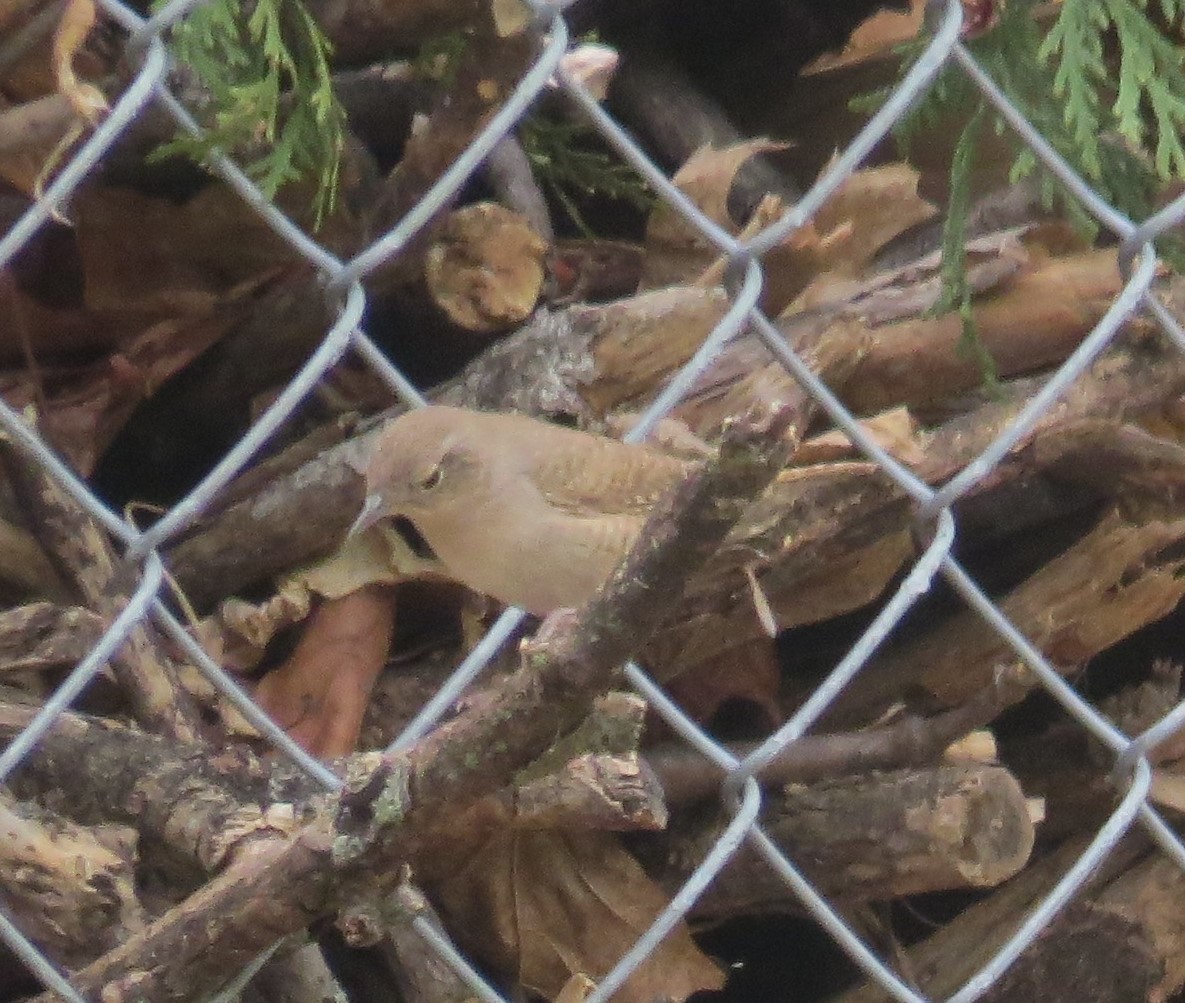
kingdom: Animalia
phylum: Chordata
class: Aves
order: Passeriformes
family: Troglodytidae
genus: Troglodytes
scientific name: Troglodytes aedon
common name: House wren
